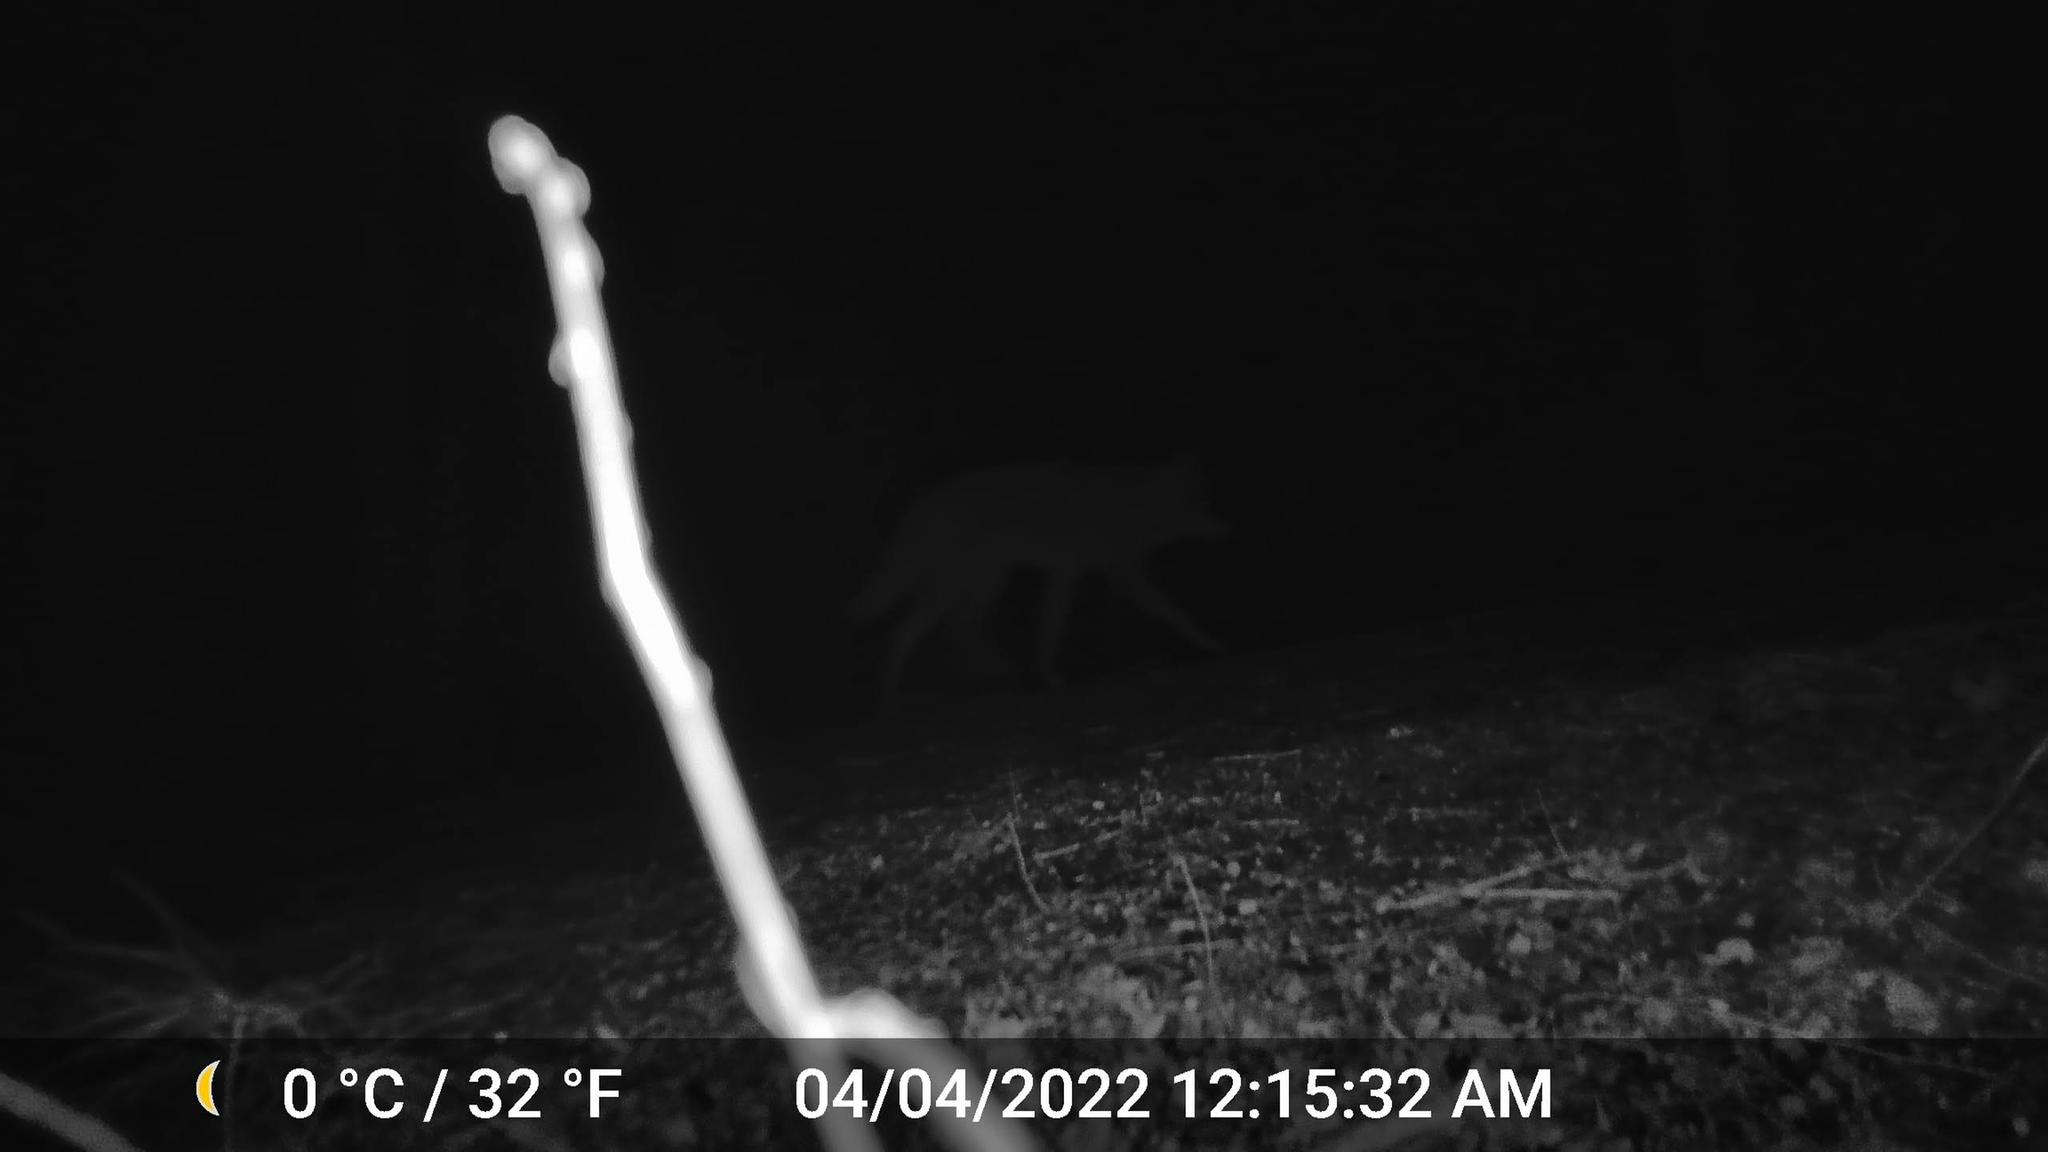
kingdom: Animalia
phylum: Chordata
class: Mammalia
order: Carnivora
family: Canidae
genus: Canis
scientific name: Canis latrans
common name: Coyote
